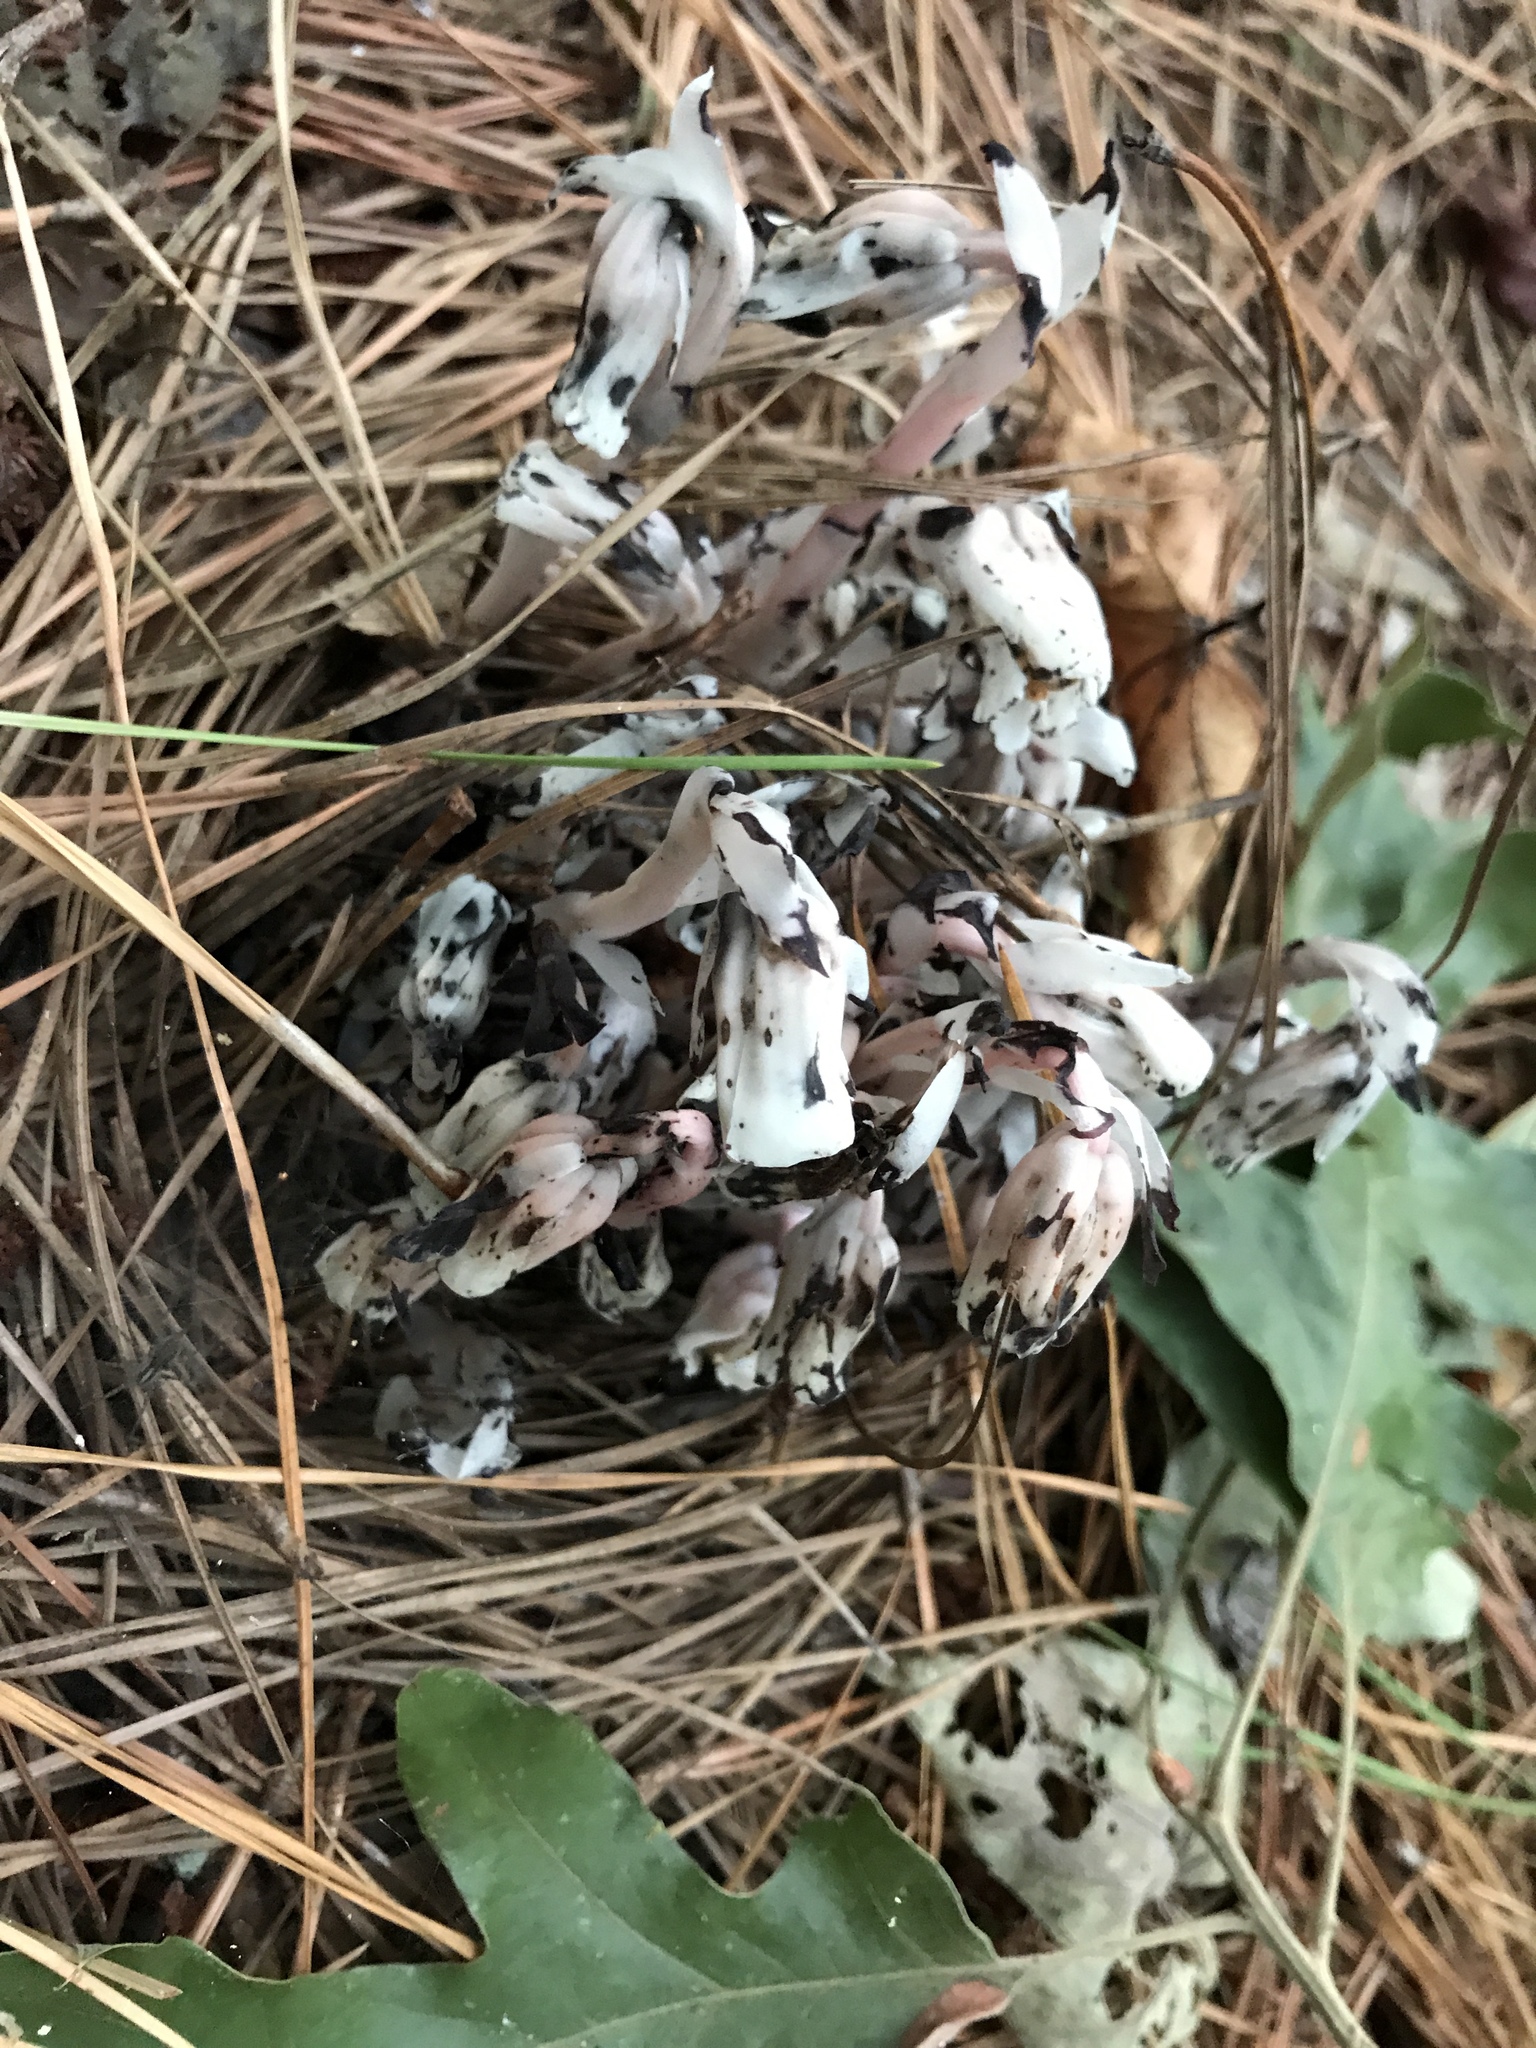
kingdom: Plantae
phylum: Tracheophyta
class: Magnoliopsida
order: Ericales
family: Ericaceae
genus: Monotropa
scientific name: Monotropa uniflora
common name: Convulsion root
